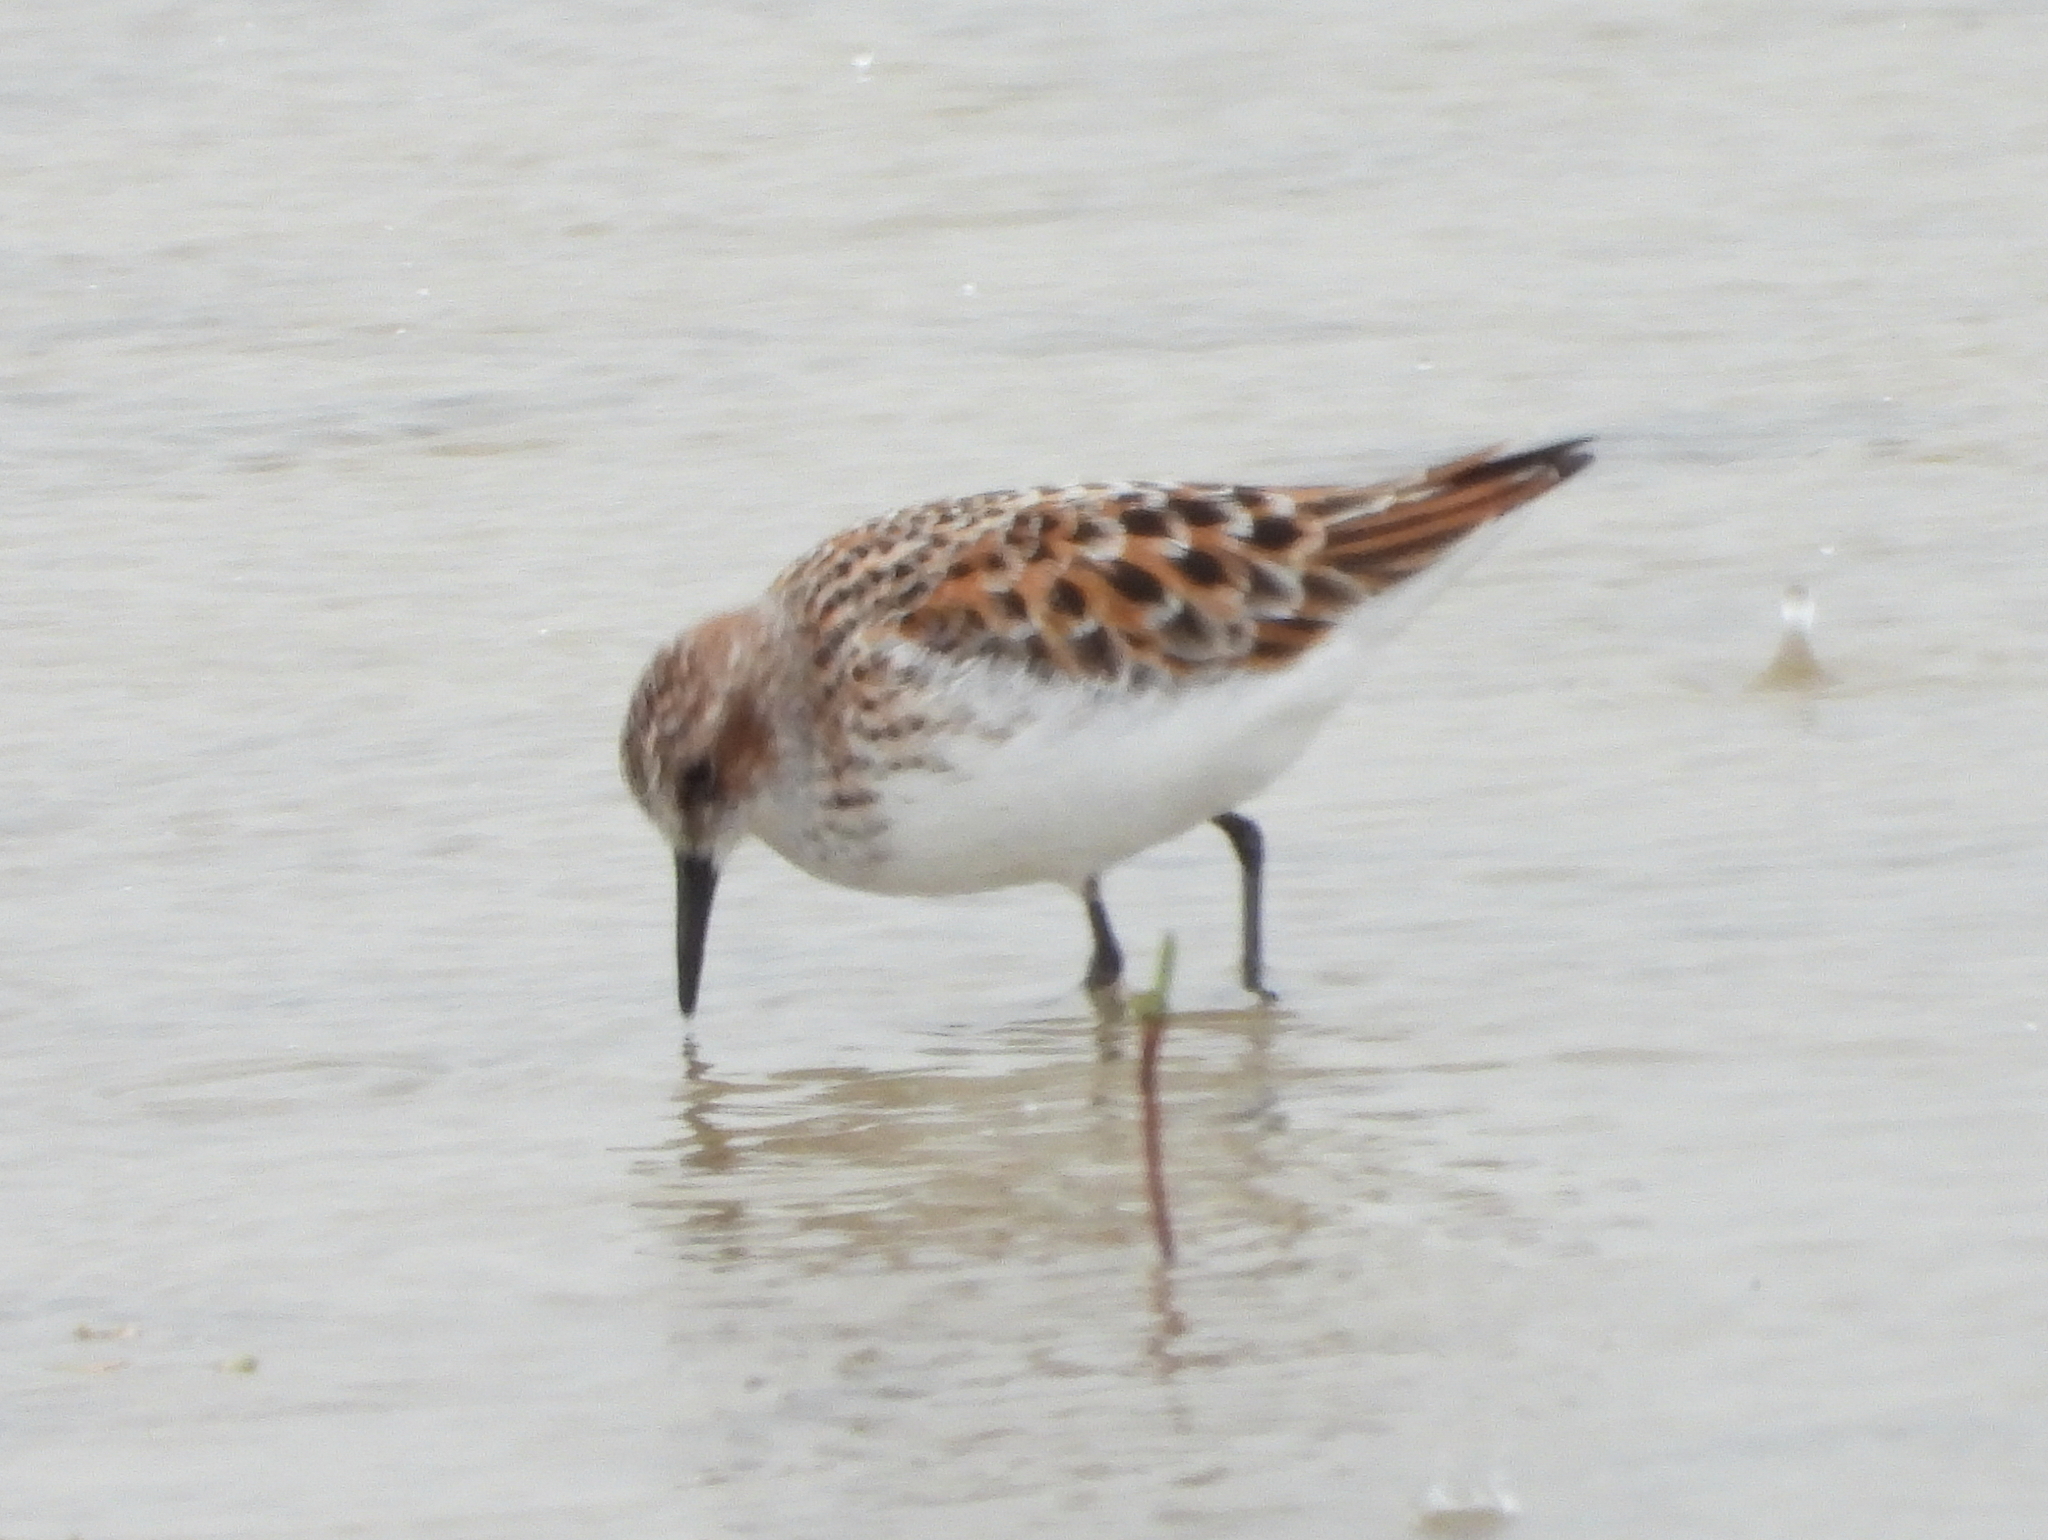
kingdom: Animalia
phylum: Chordata
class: Aves
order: Charadriiformes
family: Scolopacidae
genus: Calidris
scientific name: Calidris minuta
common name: Little stint
